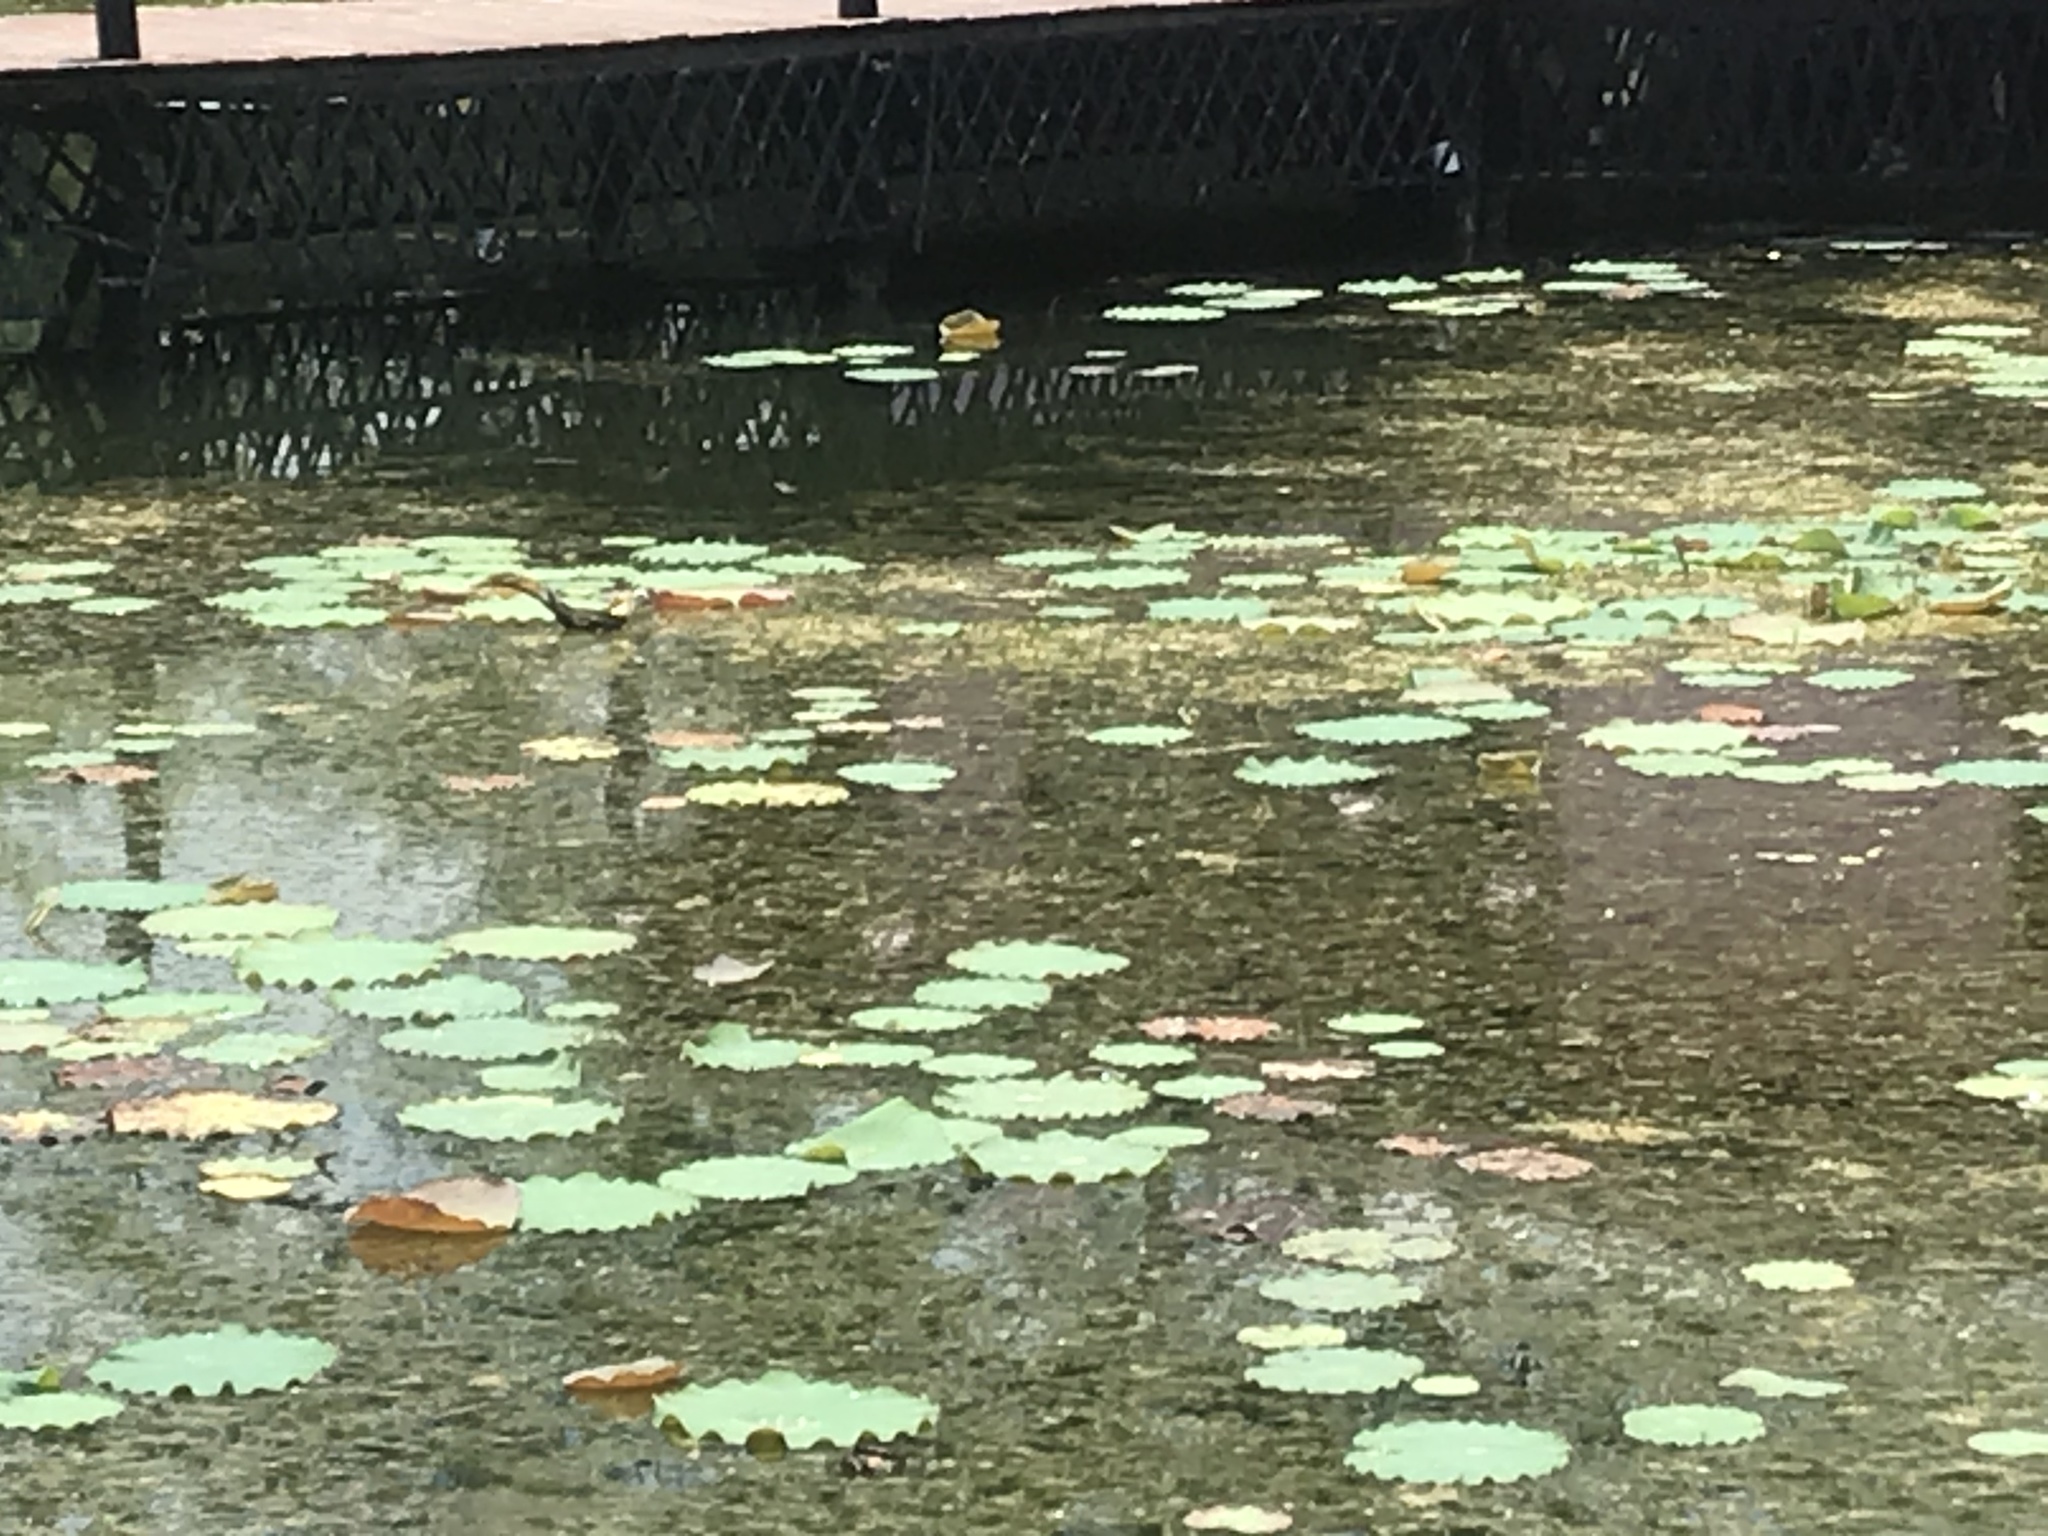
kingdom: Animalia
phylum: Chordata
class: Aves
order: Charadriiformes
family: Jacanidae
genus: Hydrophasianus
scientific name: Hydrophasianus chirurgus
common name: Pheasant-tailed jacana
